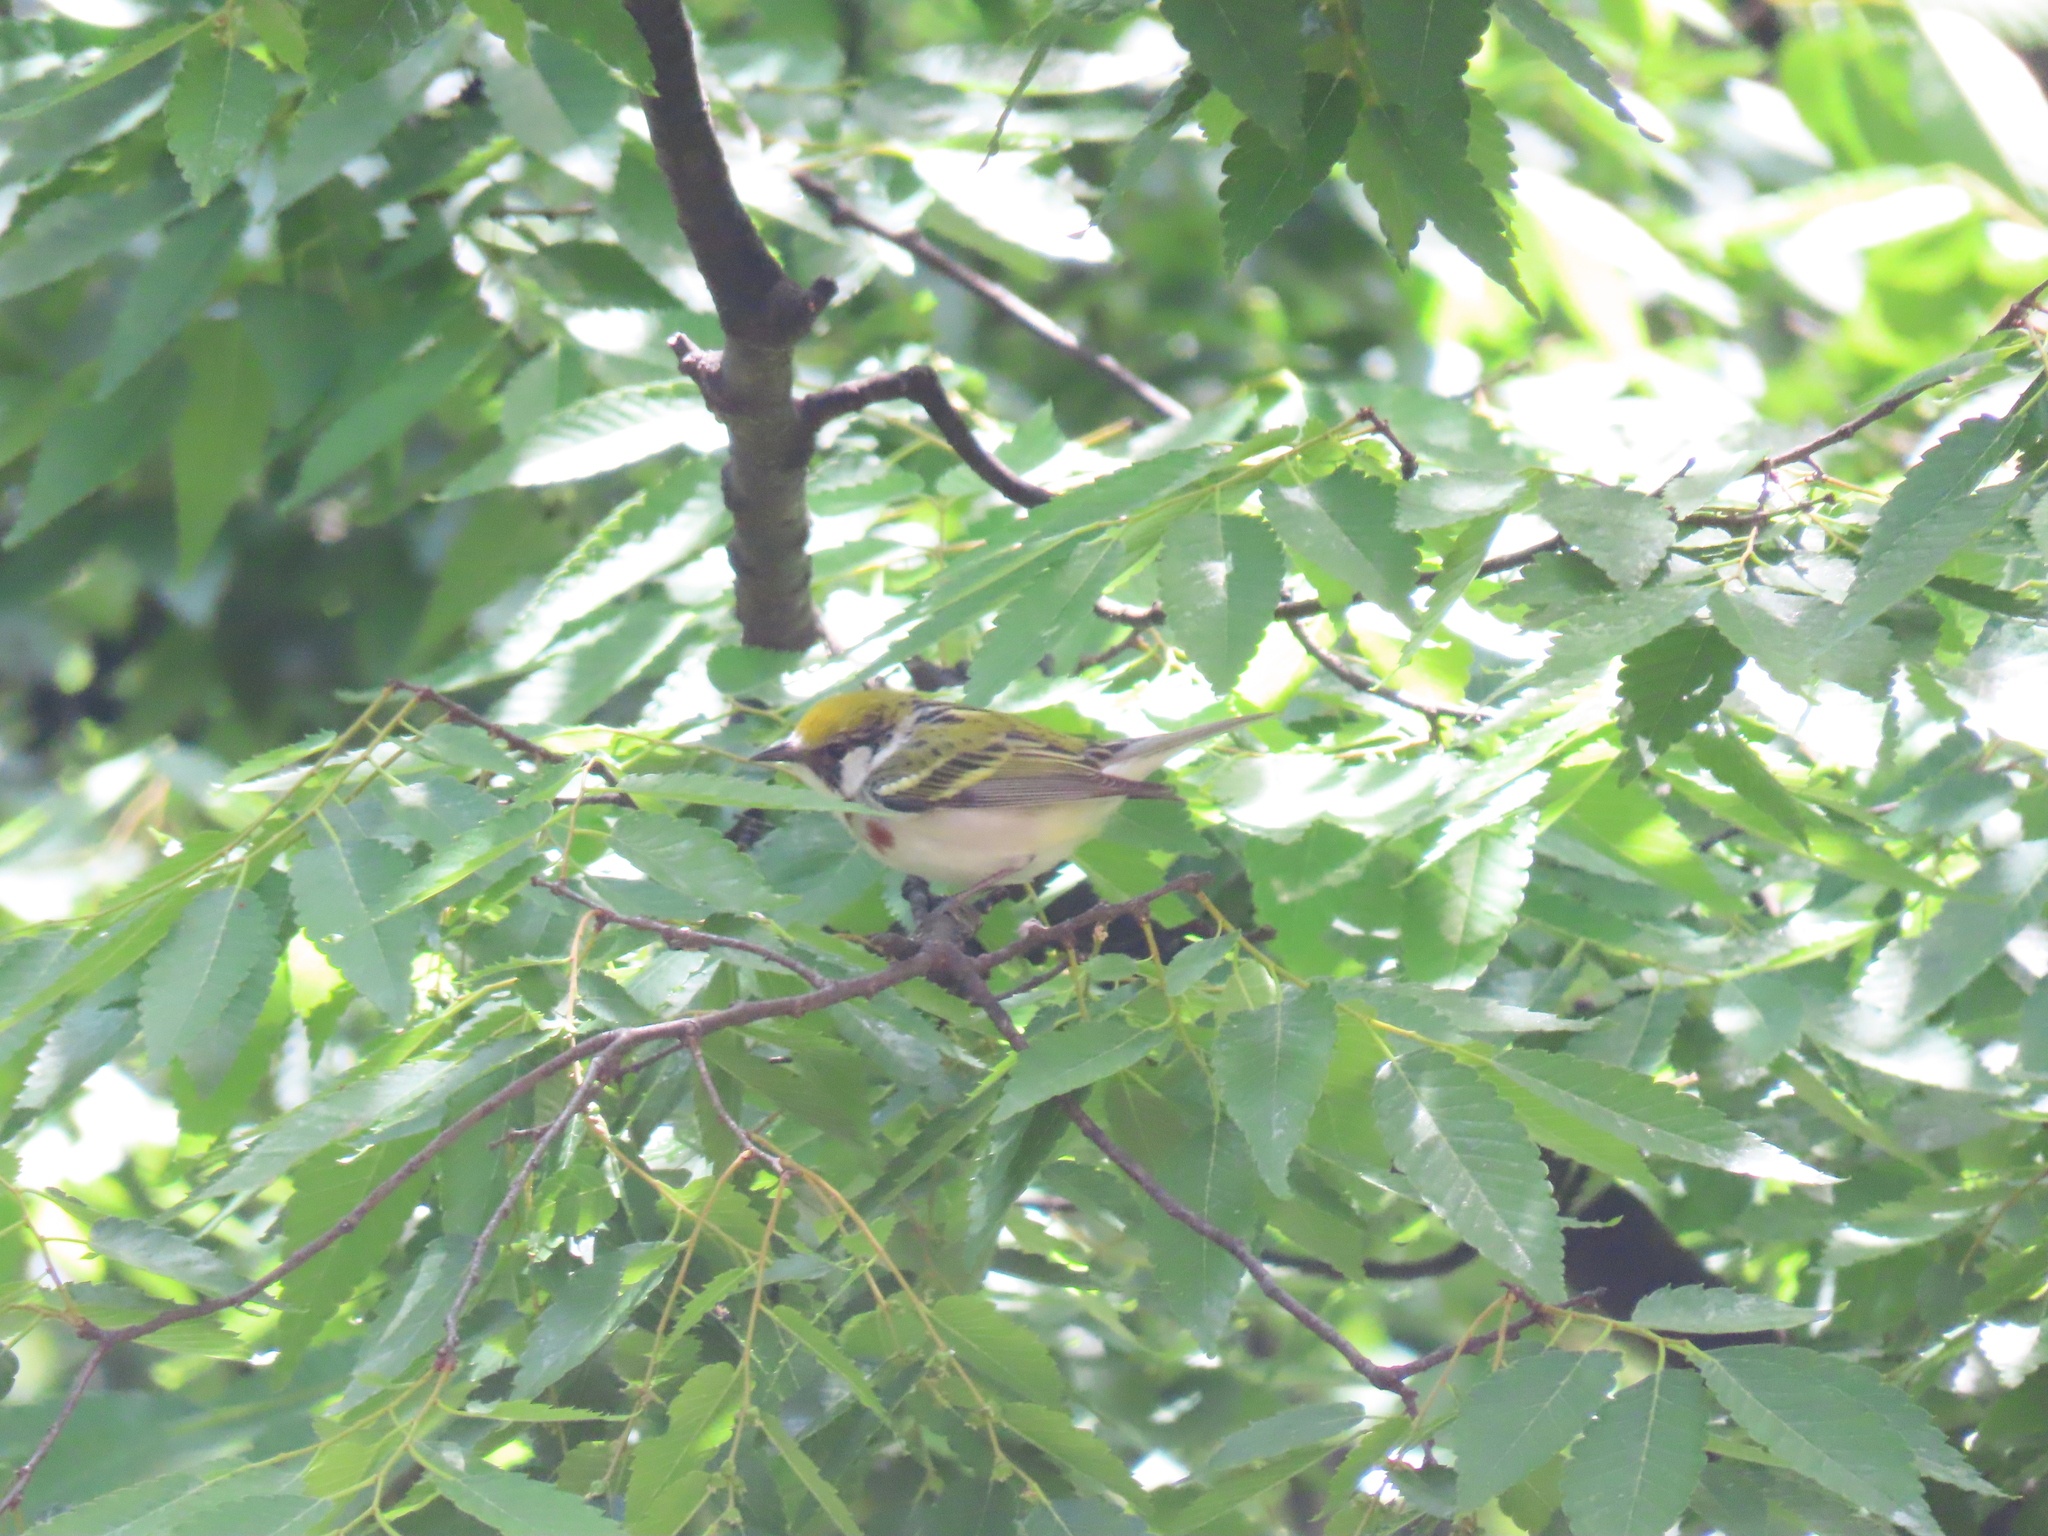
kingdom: Animalia
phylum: Chordata
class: Aves
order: Passeriformes
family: Parulidae
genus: Setophaga
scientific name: Setophaga pensylvanica
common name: Chestnut-sided warbler
